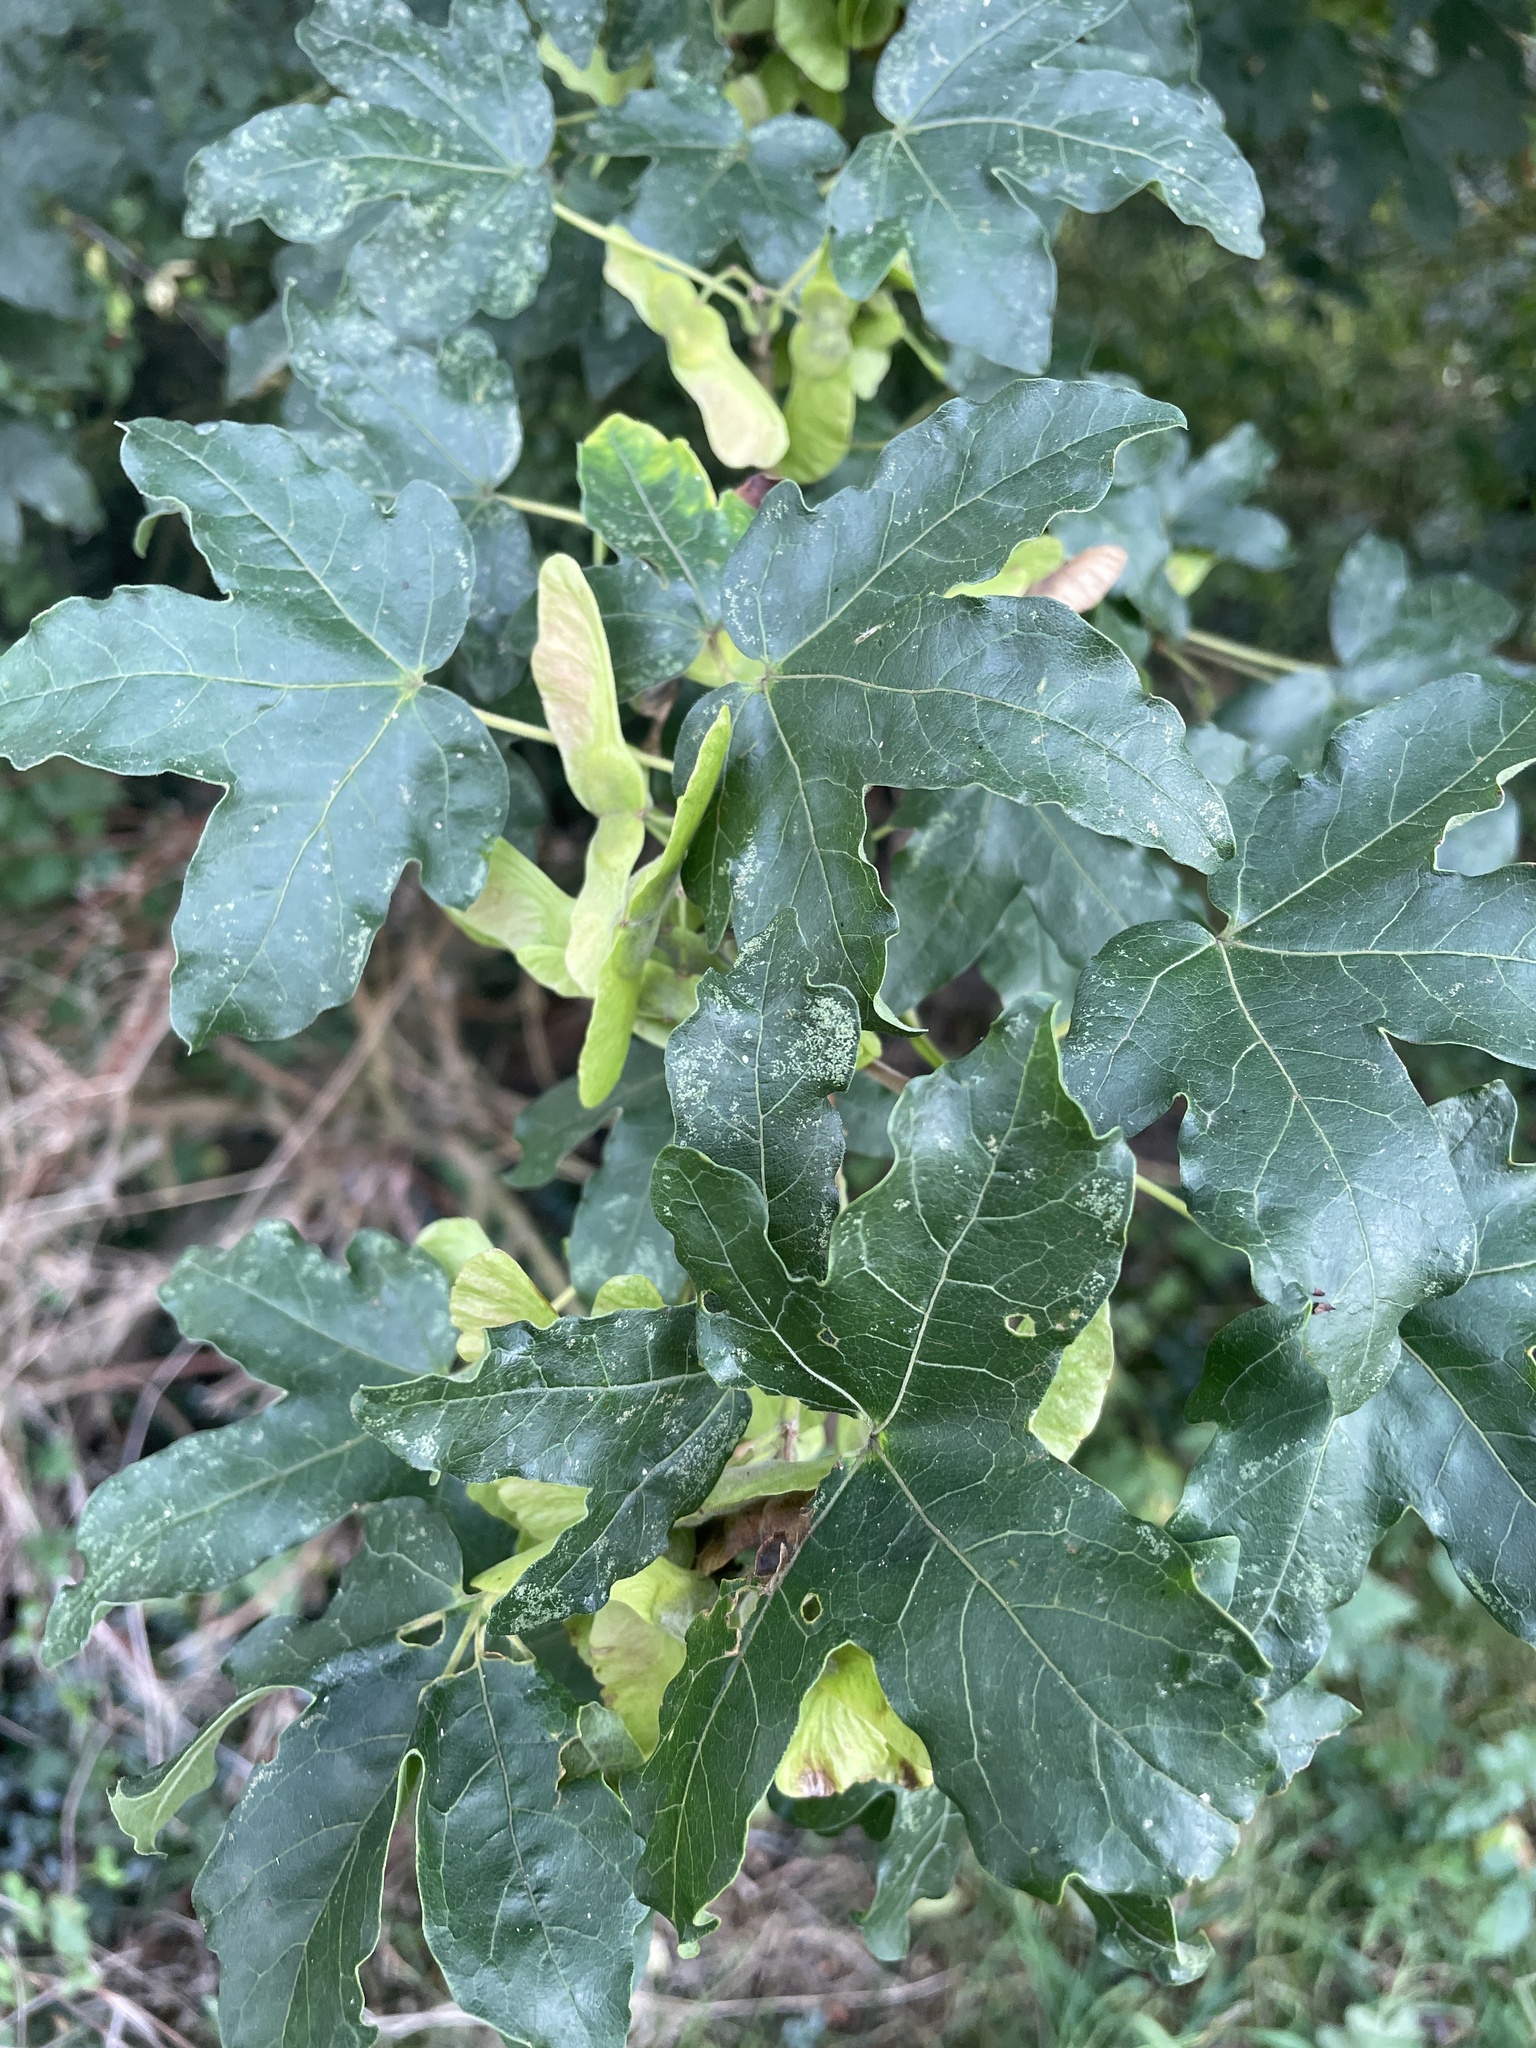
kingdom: Plantae
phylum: Tracheophyta
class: Magnoliopsida
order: Sapindales
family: Sapindaceae
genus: Acer
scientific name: Acer campestre
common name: Field maple
